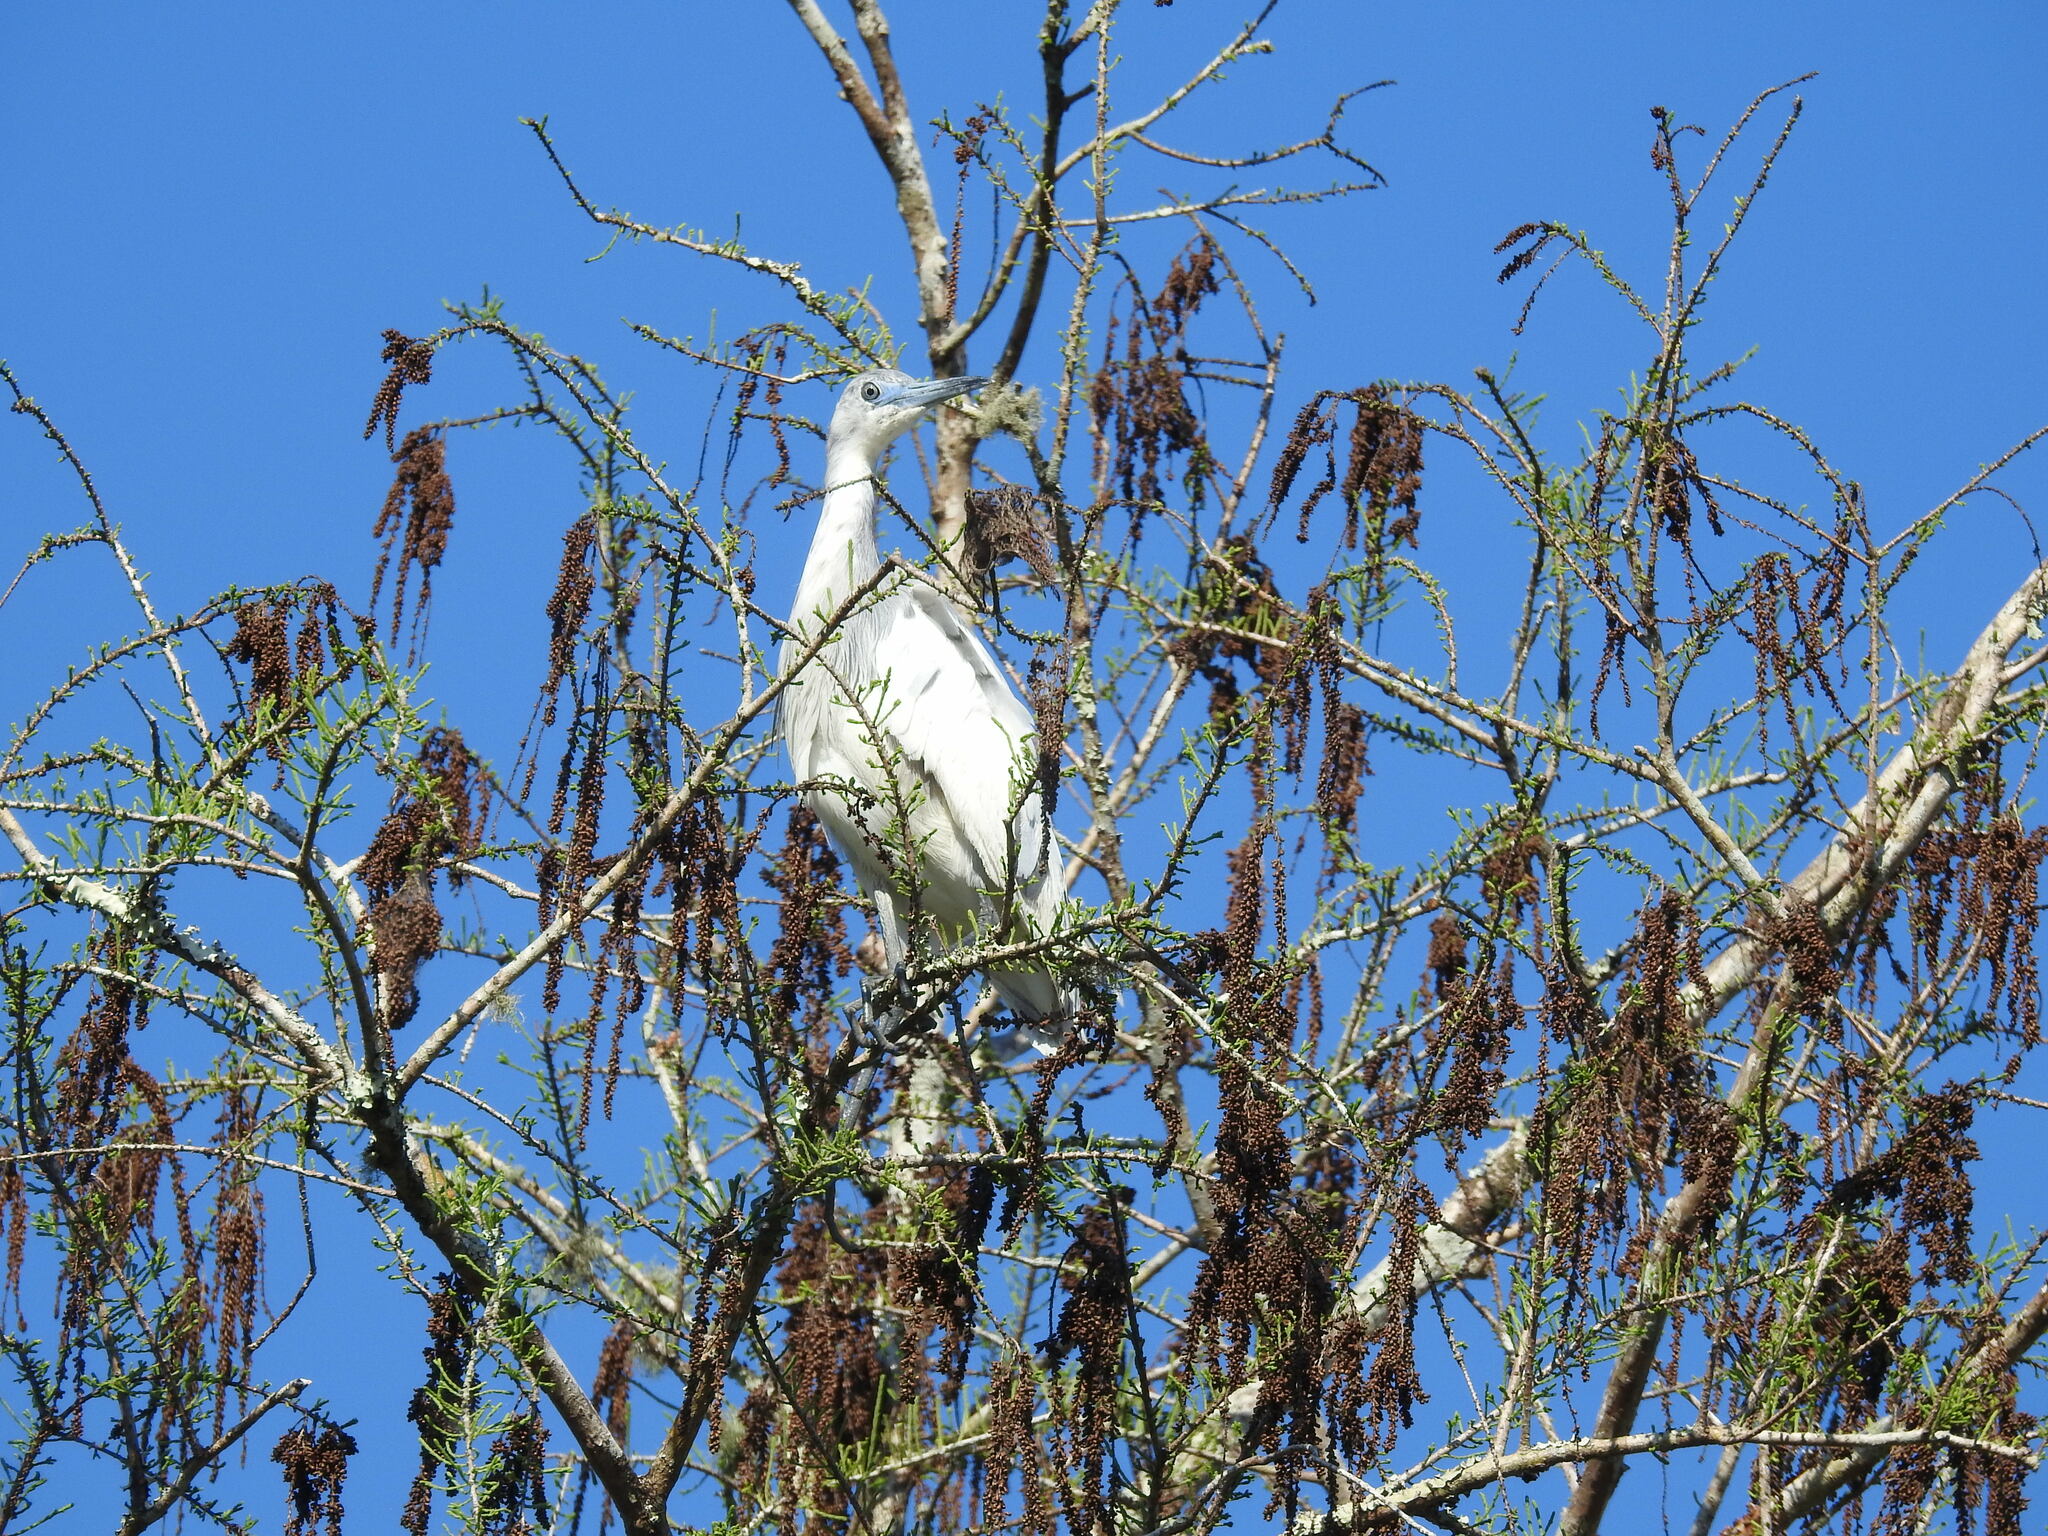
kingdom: Animalia
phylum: Chordata
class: Aves
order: Pelecaniformes
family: Ardeidae
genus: Egretta
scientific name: Egretta caerulea
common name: Little blue heron
